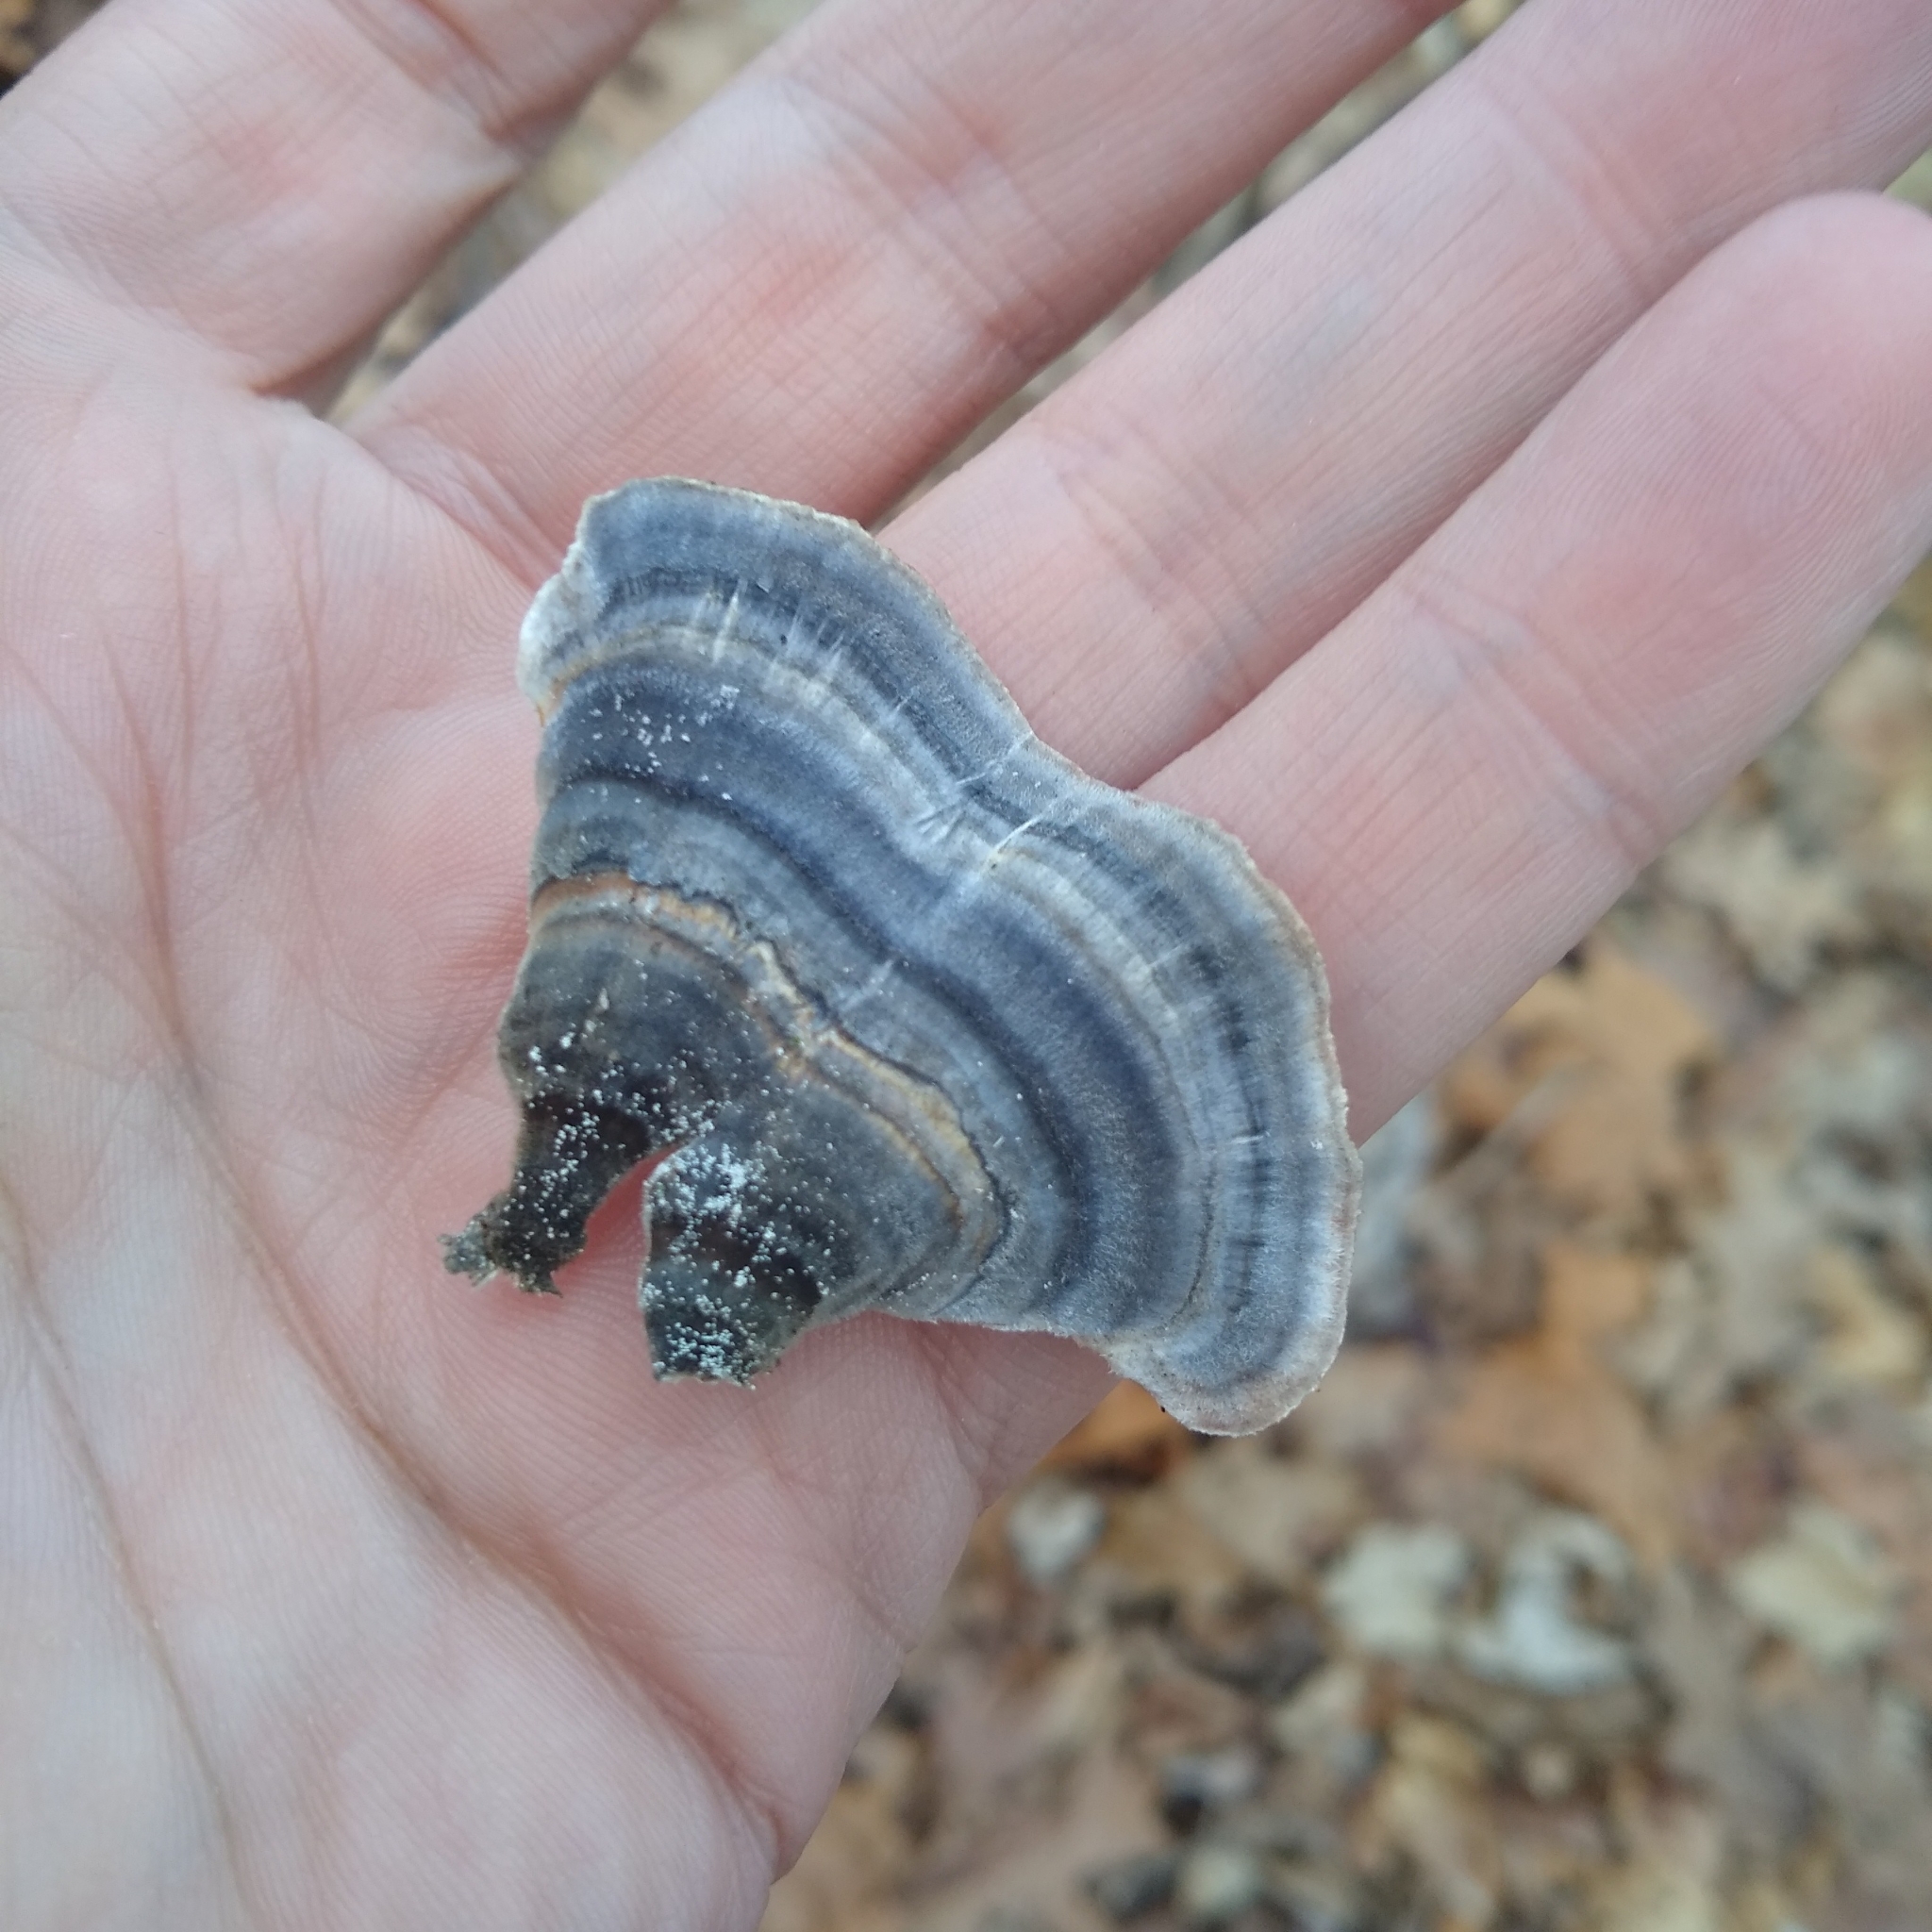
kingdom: Fungi
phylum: Basidiomycota
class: Agaricomycetes
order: Polyporales
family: Polyporaceae
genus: Trametes
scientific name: Trametes versicolor
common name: Turkeytail
